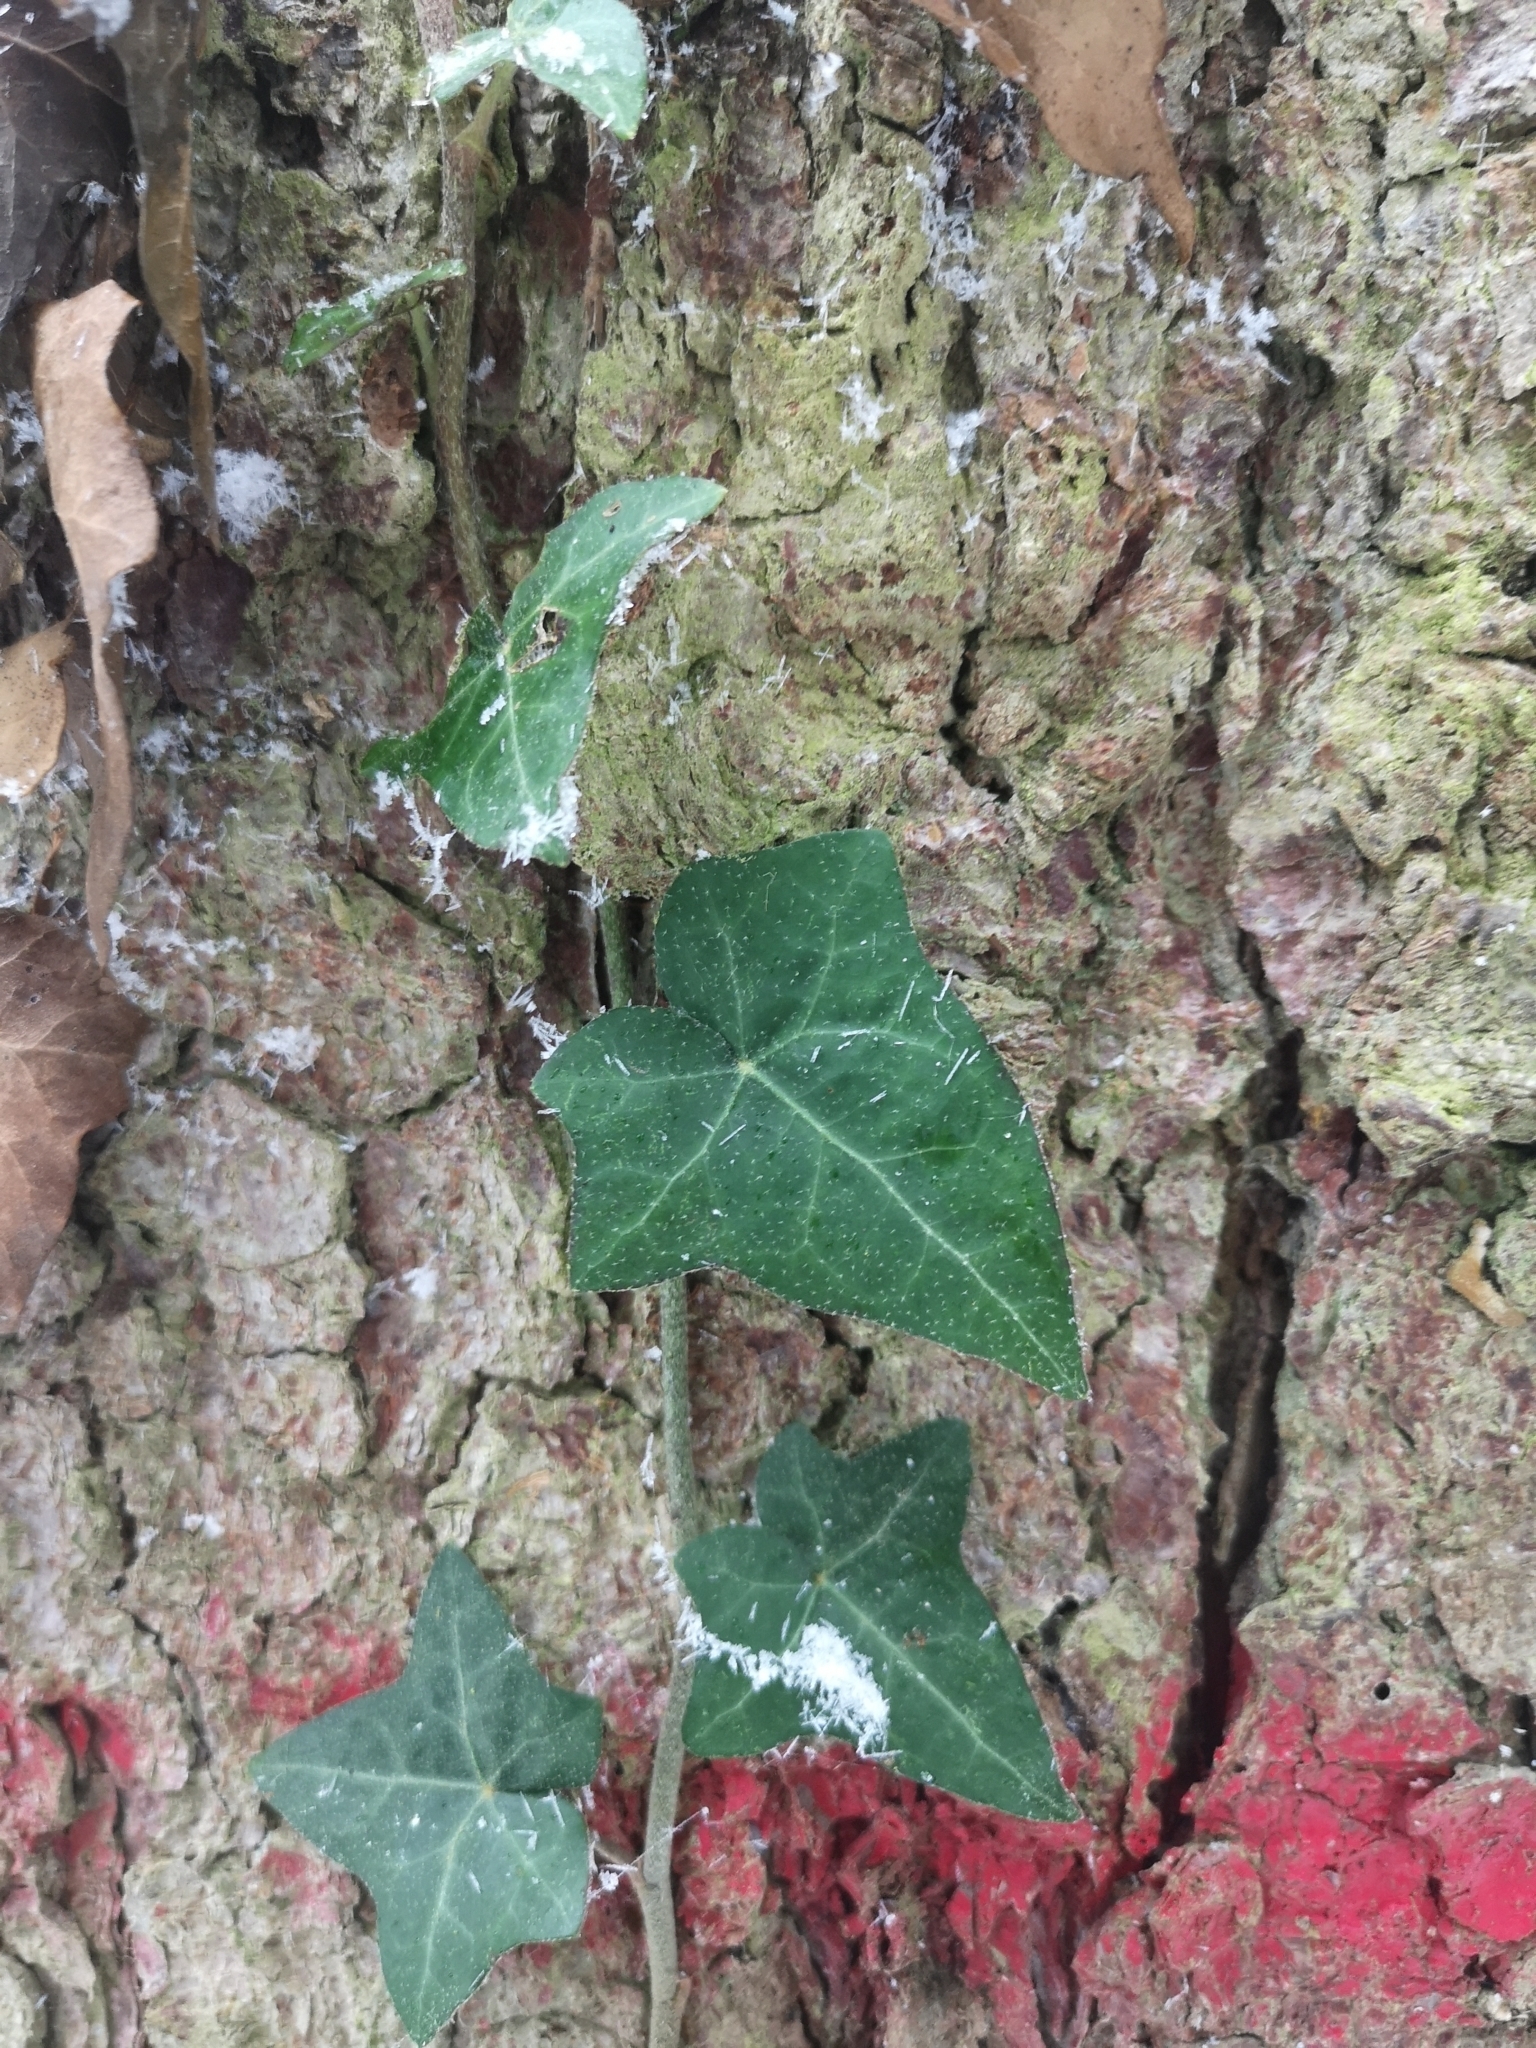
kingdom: Plantae
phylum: Tracheophyta
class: Magnoliopsida
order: Apiales
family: Araliaceae
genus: Hedera
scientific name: Hedera helix
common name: Ivy
